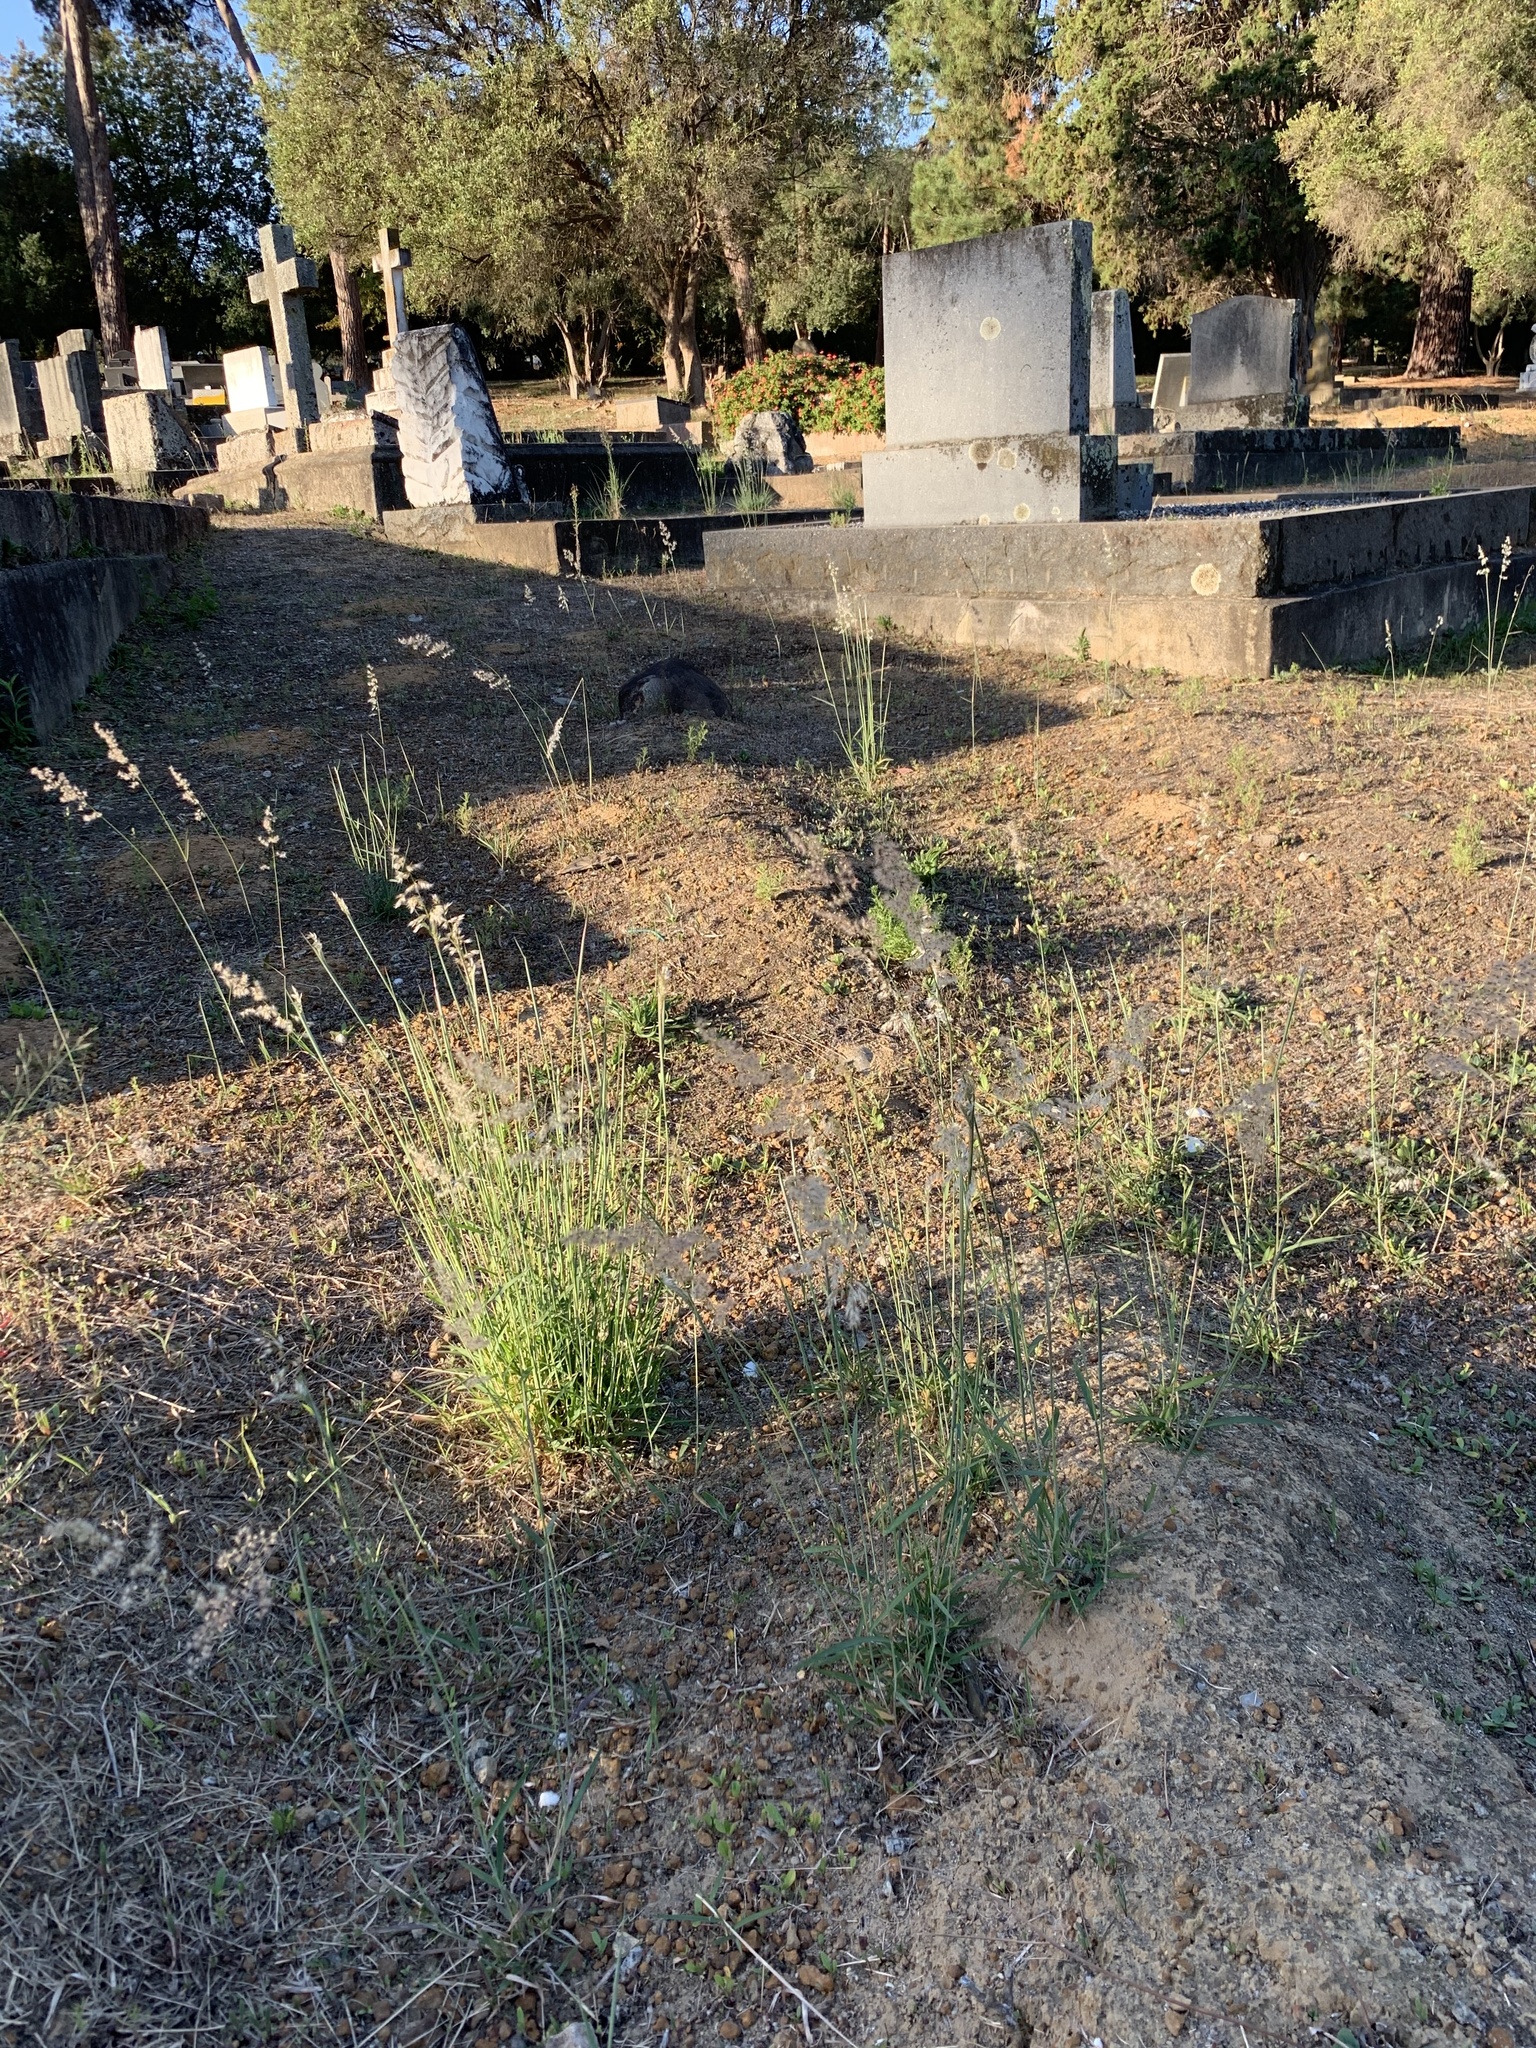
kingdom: Plantae
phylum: Tracheophyta
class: Liliopsida
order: Poales
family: Poaceae
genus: Melinis
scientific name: Melinis repens
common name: Rose natal grass
